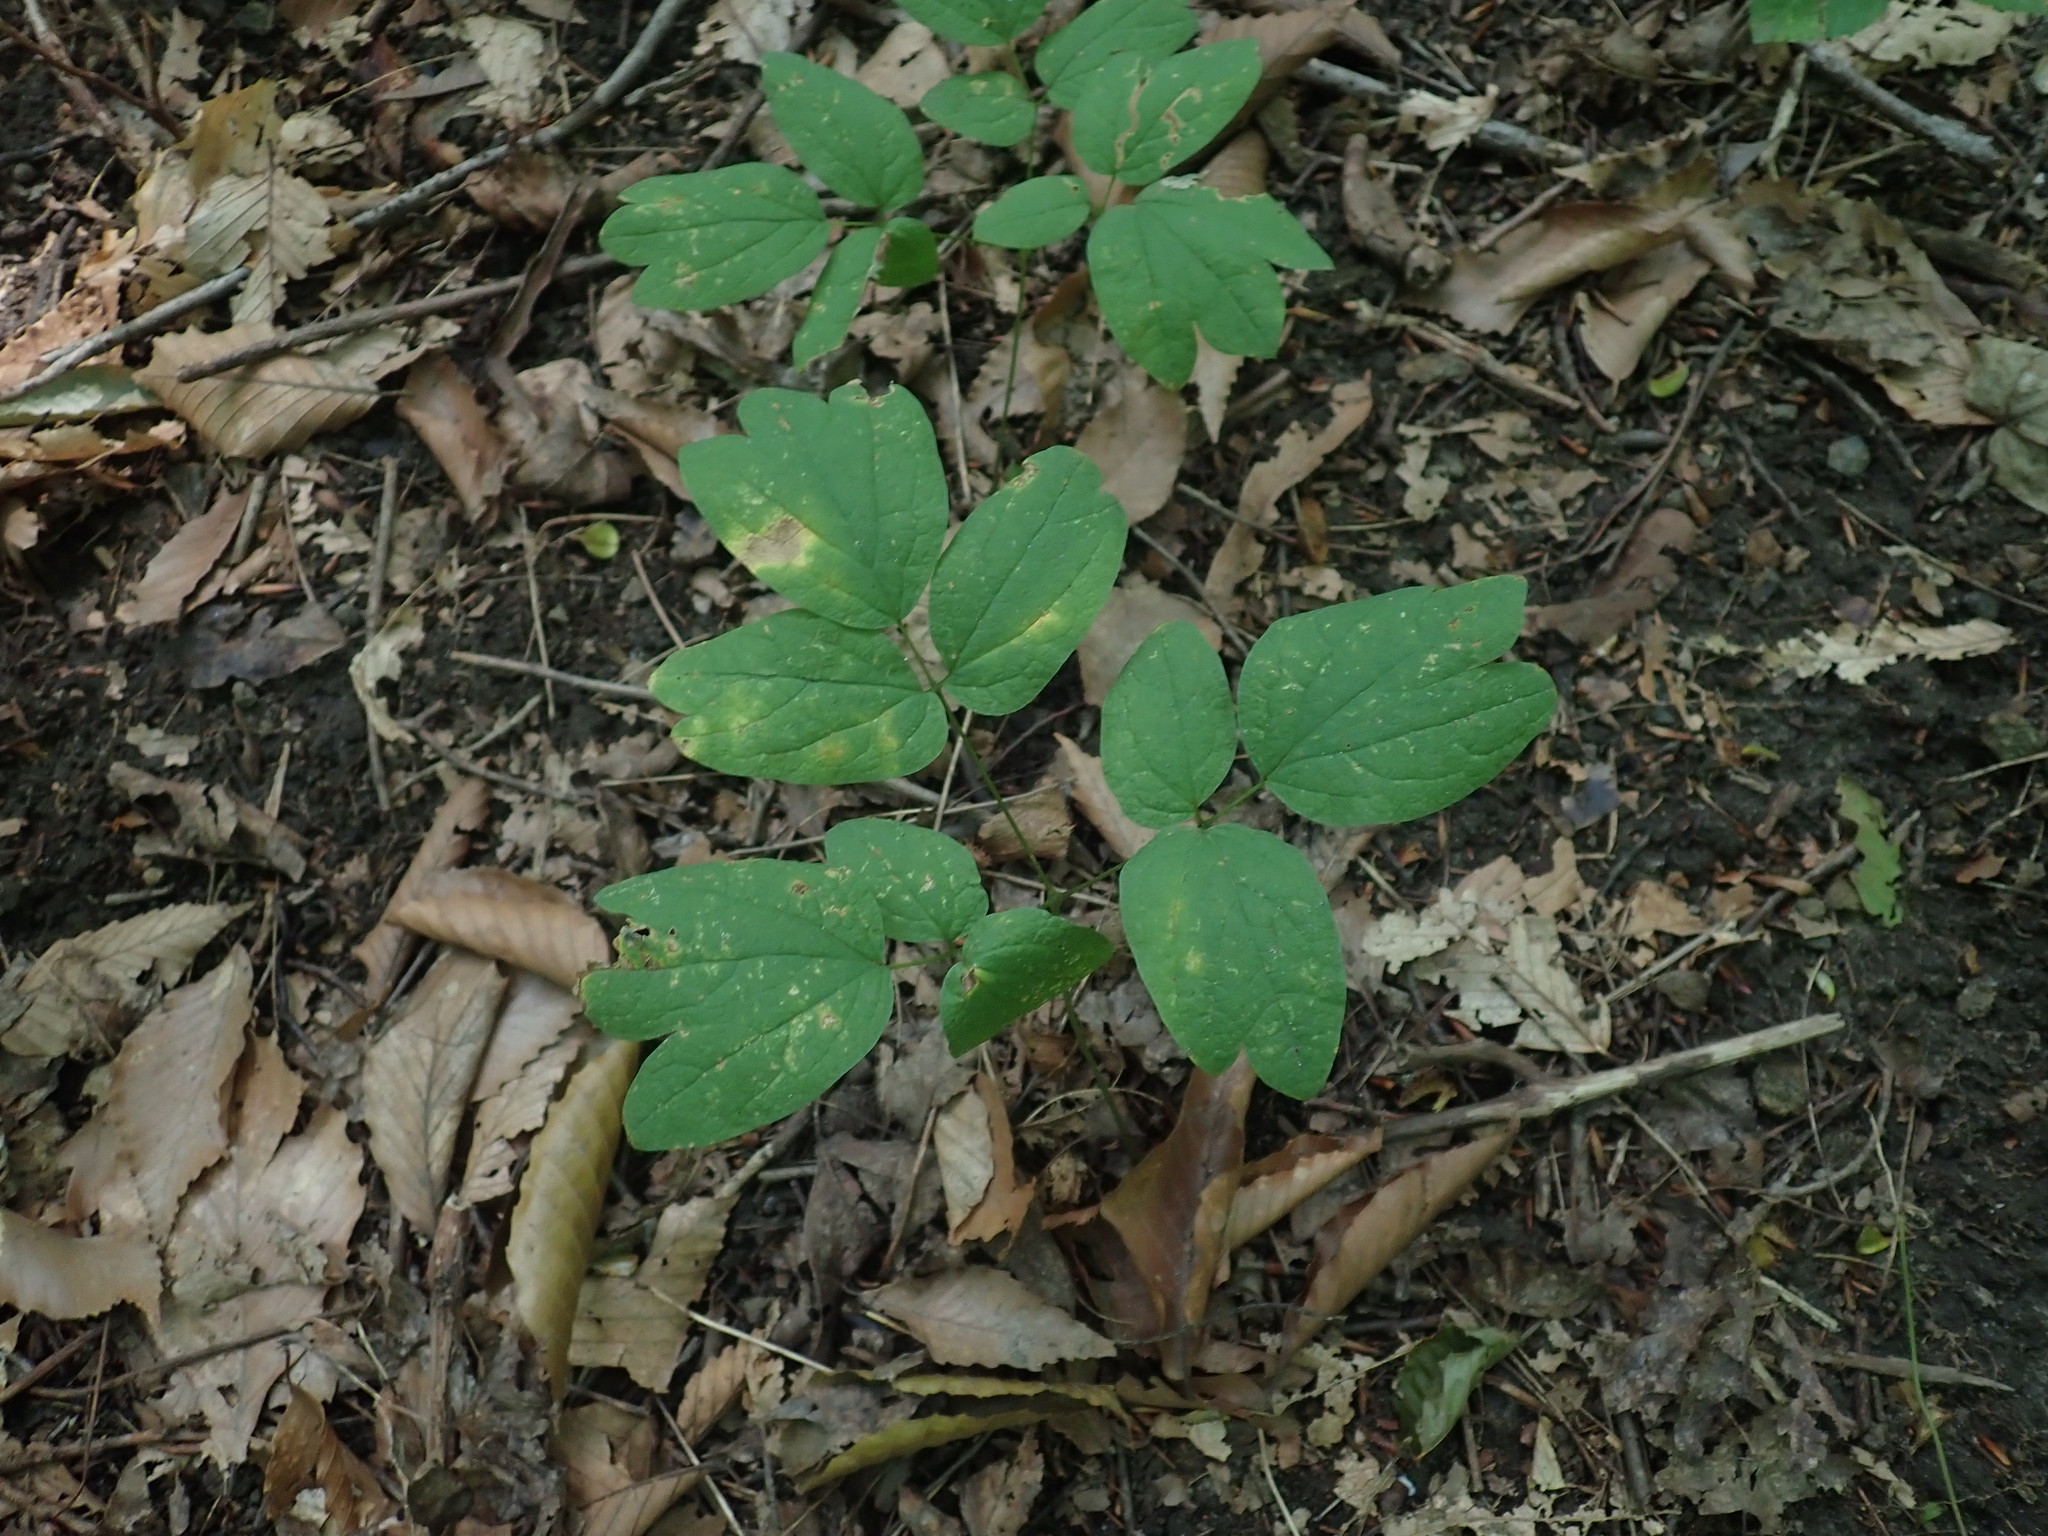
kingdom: Plantae
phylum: Tracheophyta
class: Magnoliopsida
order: Ranunculales
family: Berberidaceae
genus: Caulophyllum
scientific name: Caulophyllum
